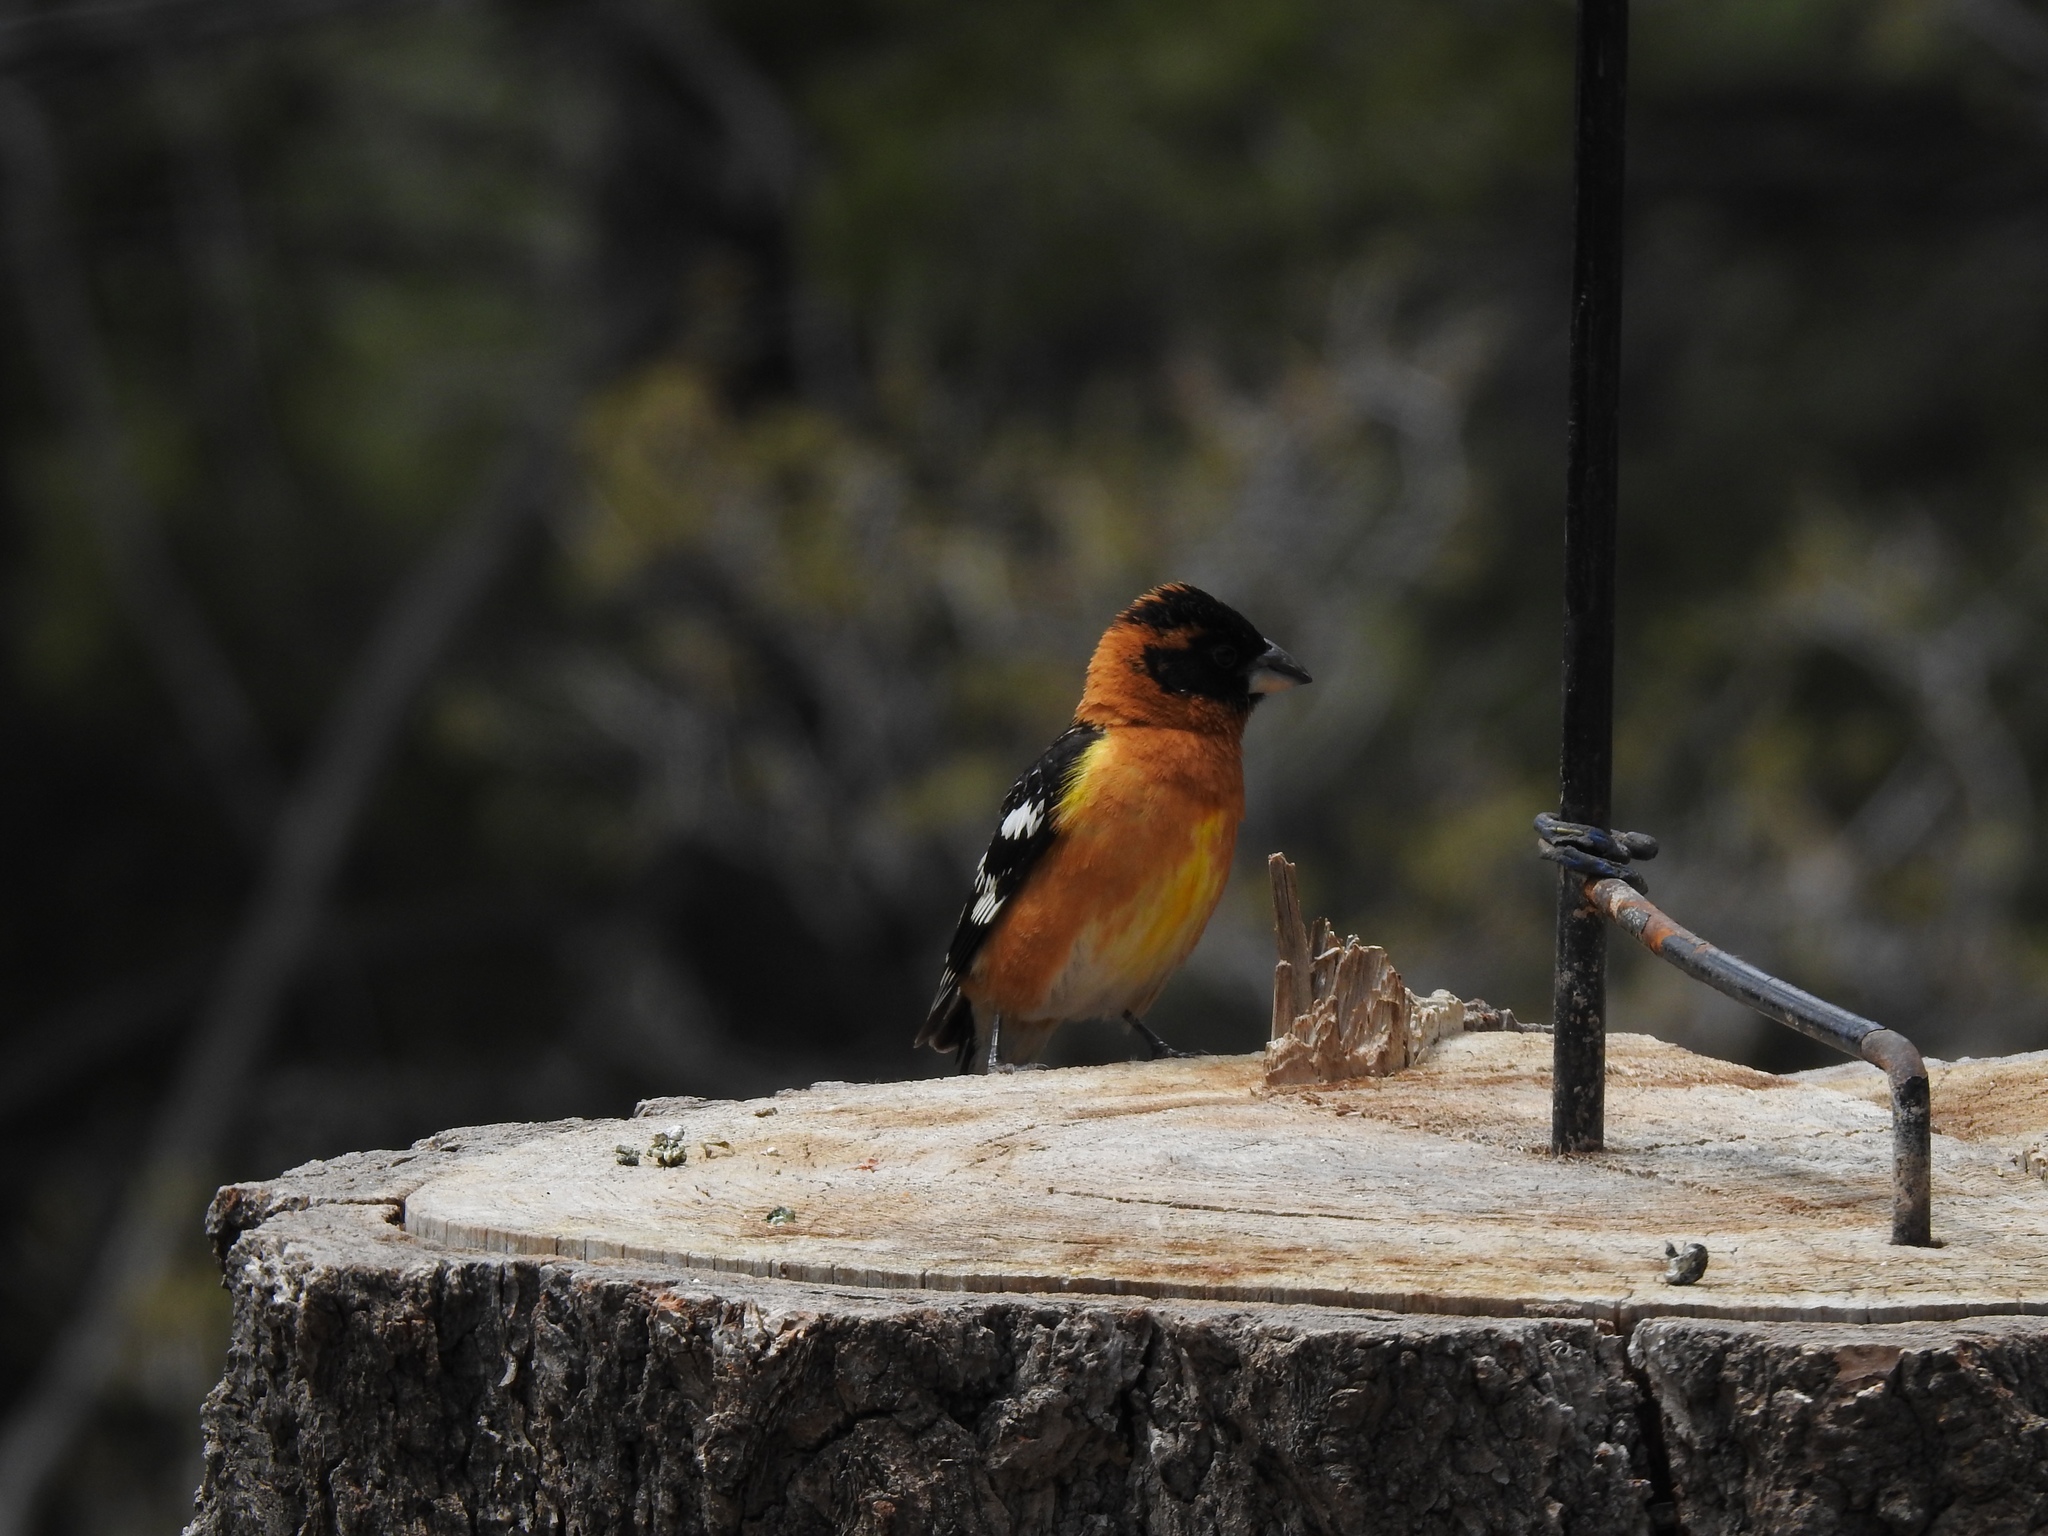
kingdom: Animalia
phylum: Chordata
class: Aves
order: Passeriformes
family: Cardinalidae
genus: Pheucticus
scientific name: Pheucticus melanocephalus
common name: Black-headed grosbeak
